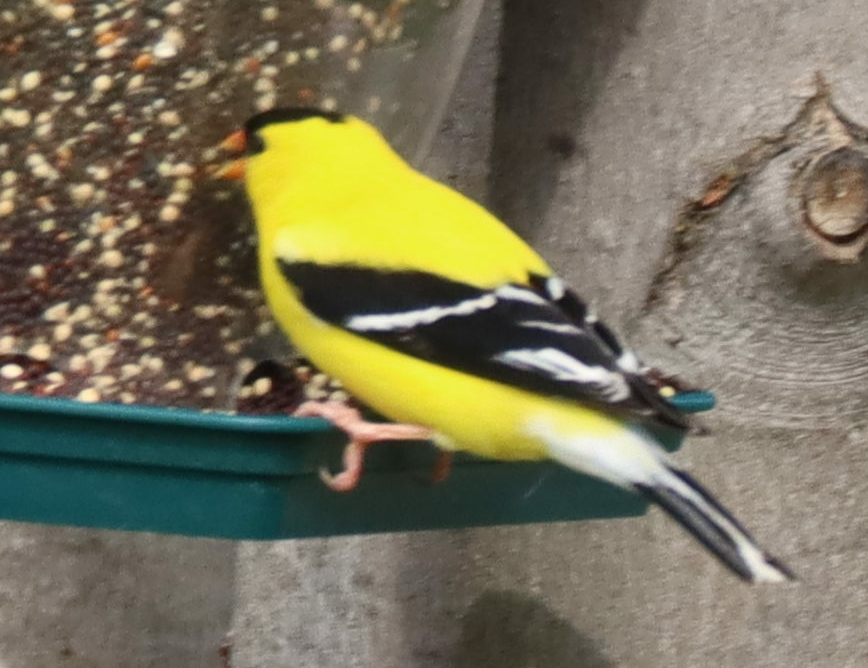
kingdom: Animalia
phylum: Chordata
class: Aves
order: Passeriformes
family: Fringillidae
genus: Spinus
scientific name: Spinus tristis
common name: American goldfinch
